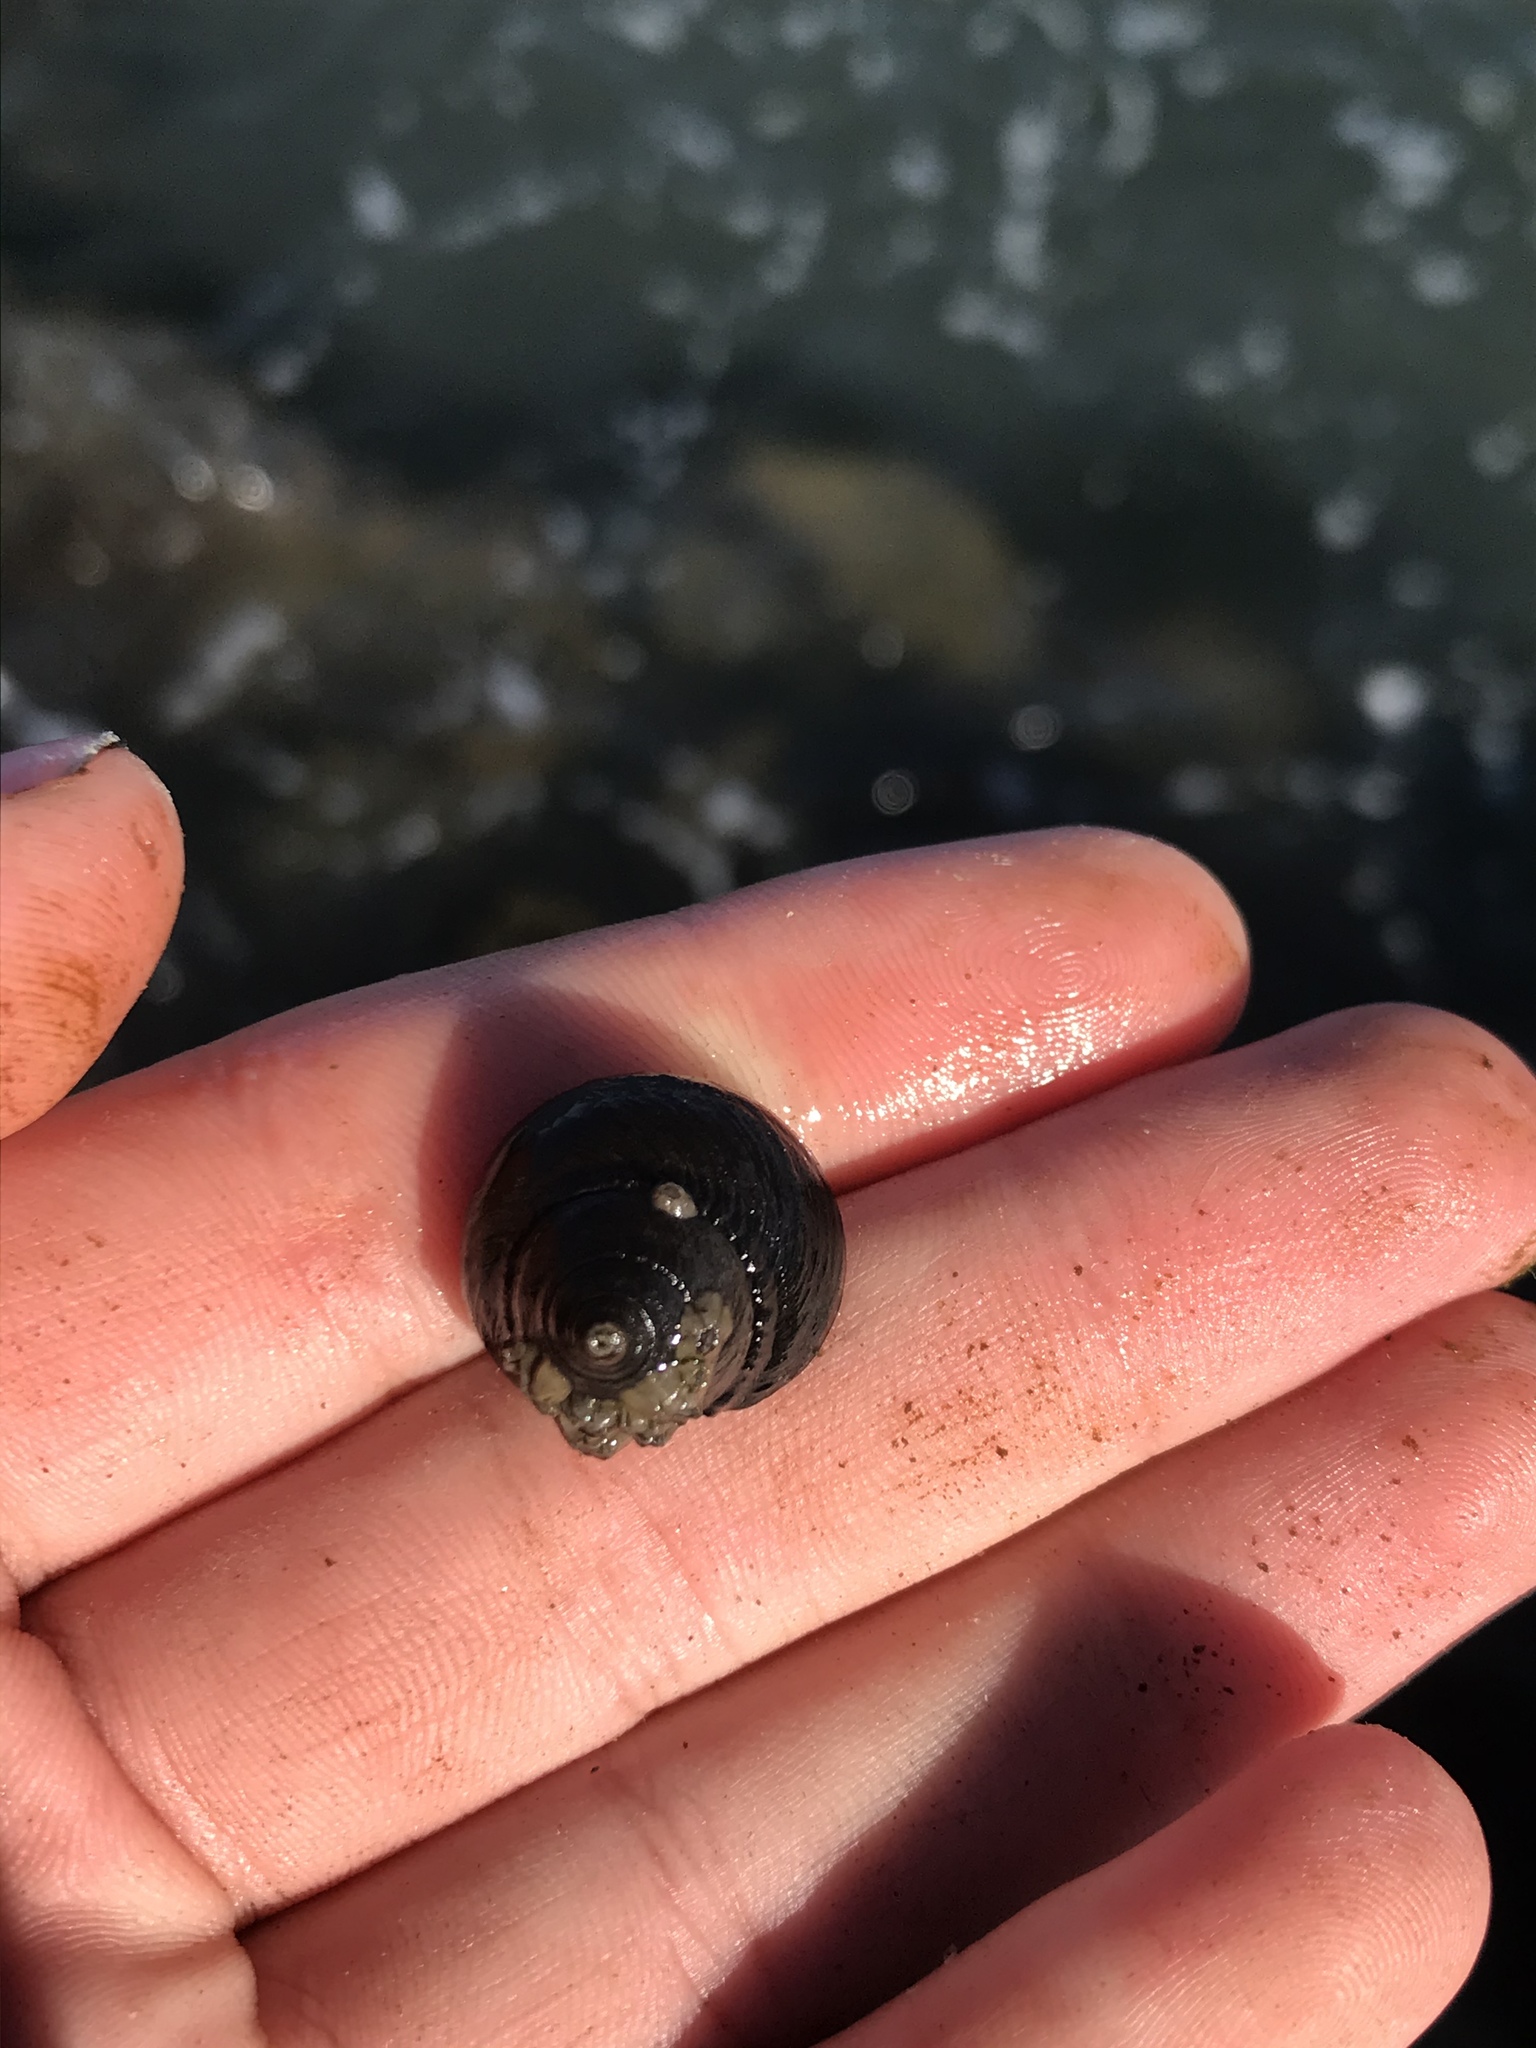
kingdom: Animalia
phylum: Mollusca
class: Gastropoda
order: Trochida
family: Tegulidae
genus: Tegula
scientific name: Tegula funebralis
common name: Black tegula
